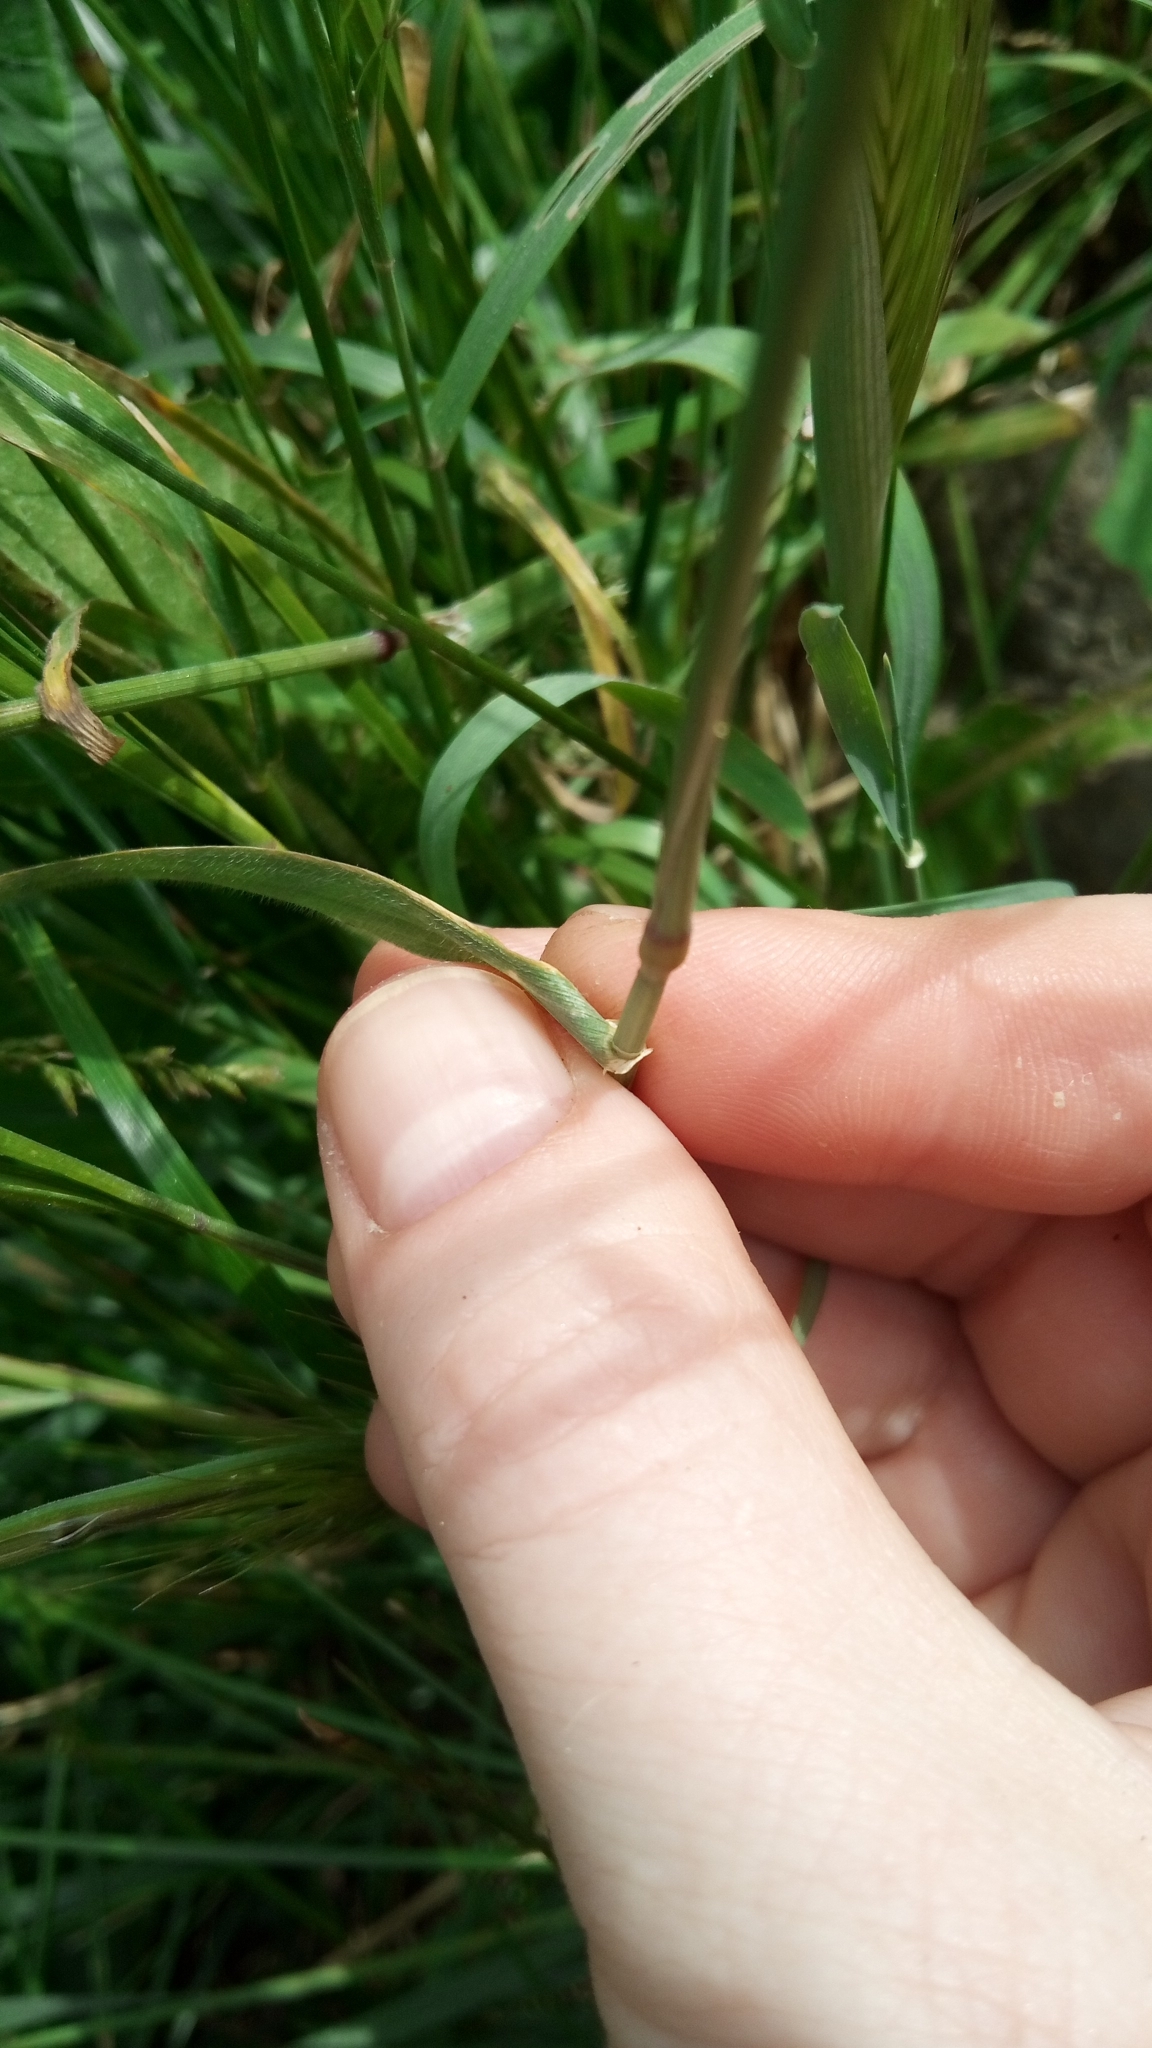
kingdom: Plantae
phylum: Tracheophyta
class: Liliopsida
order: Poales
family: Poaceae
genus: Hordeum
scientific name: Hordeum murinum
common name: Wall barley
